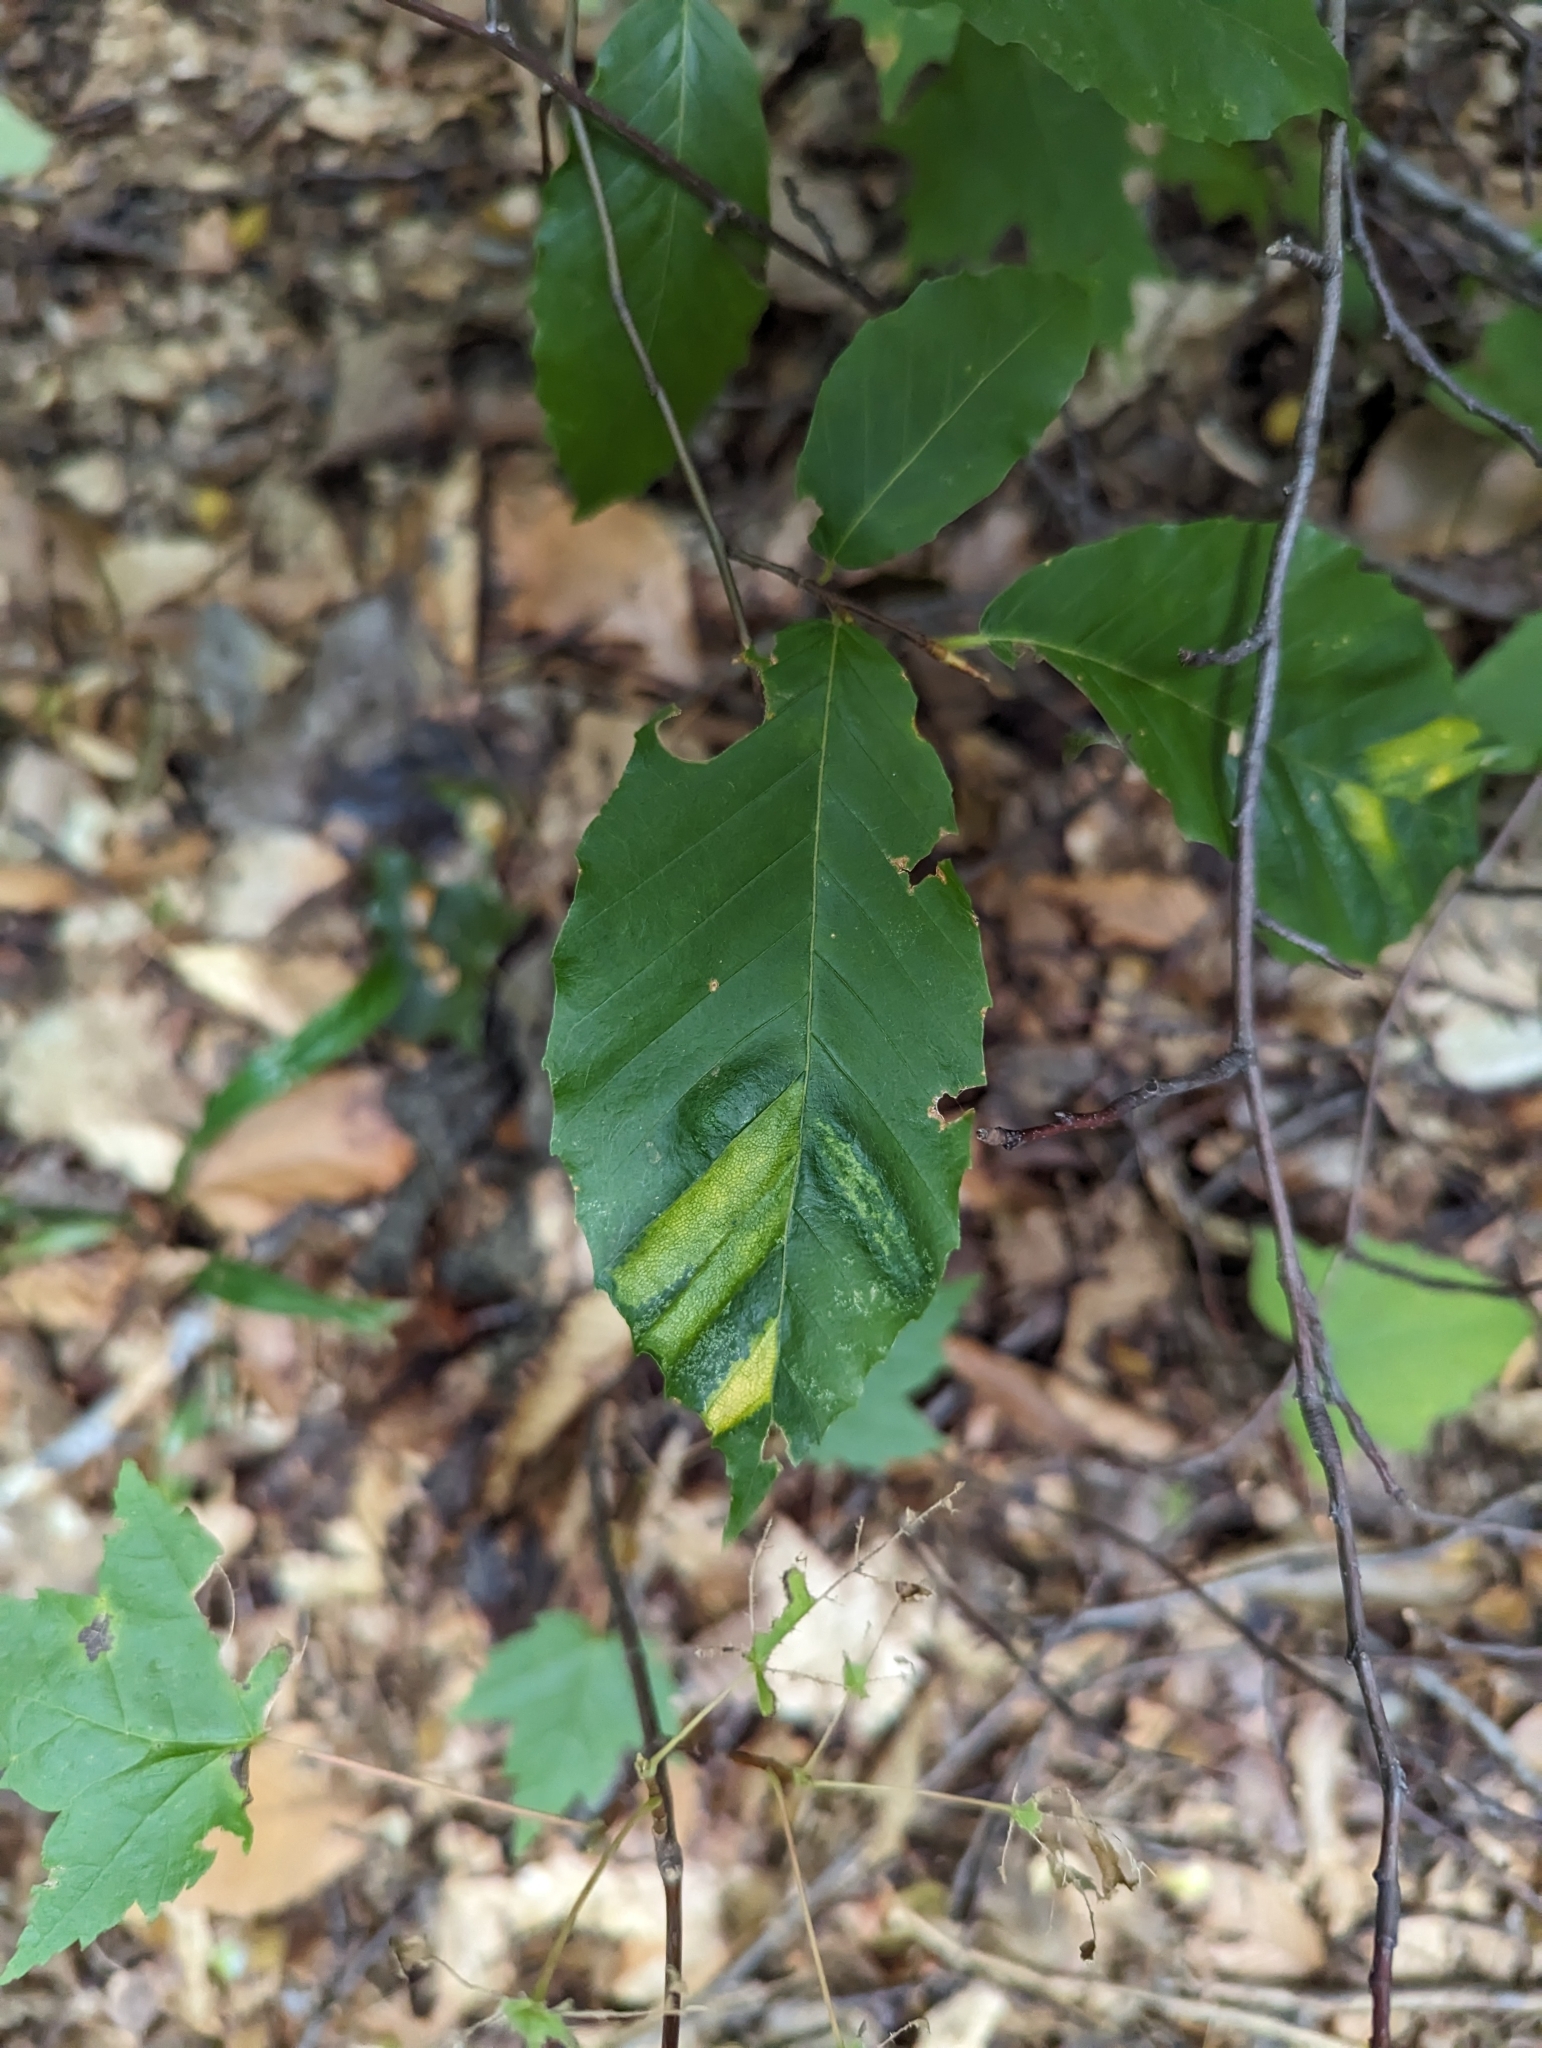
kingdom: Animalia
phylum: Nematoda
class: Chromadorea
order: Rhabditida
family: Anguinidae
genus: Litylenchus
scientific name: Litylenchus crenatae
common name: Beech leaf disease
